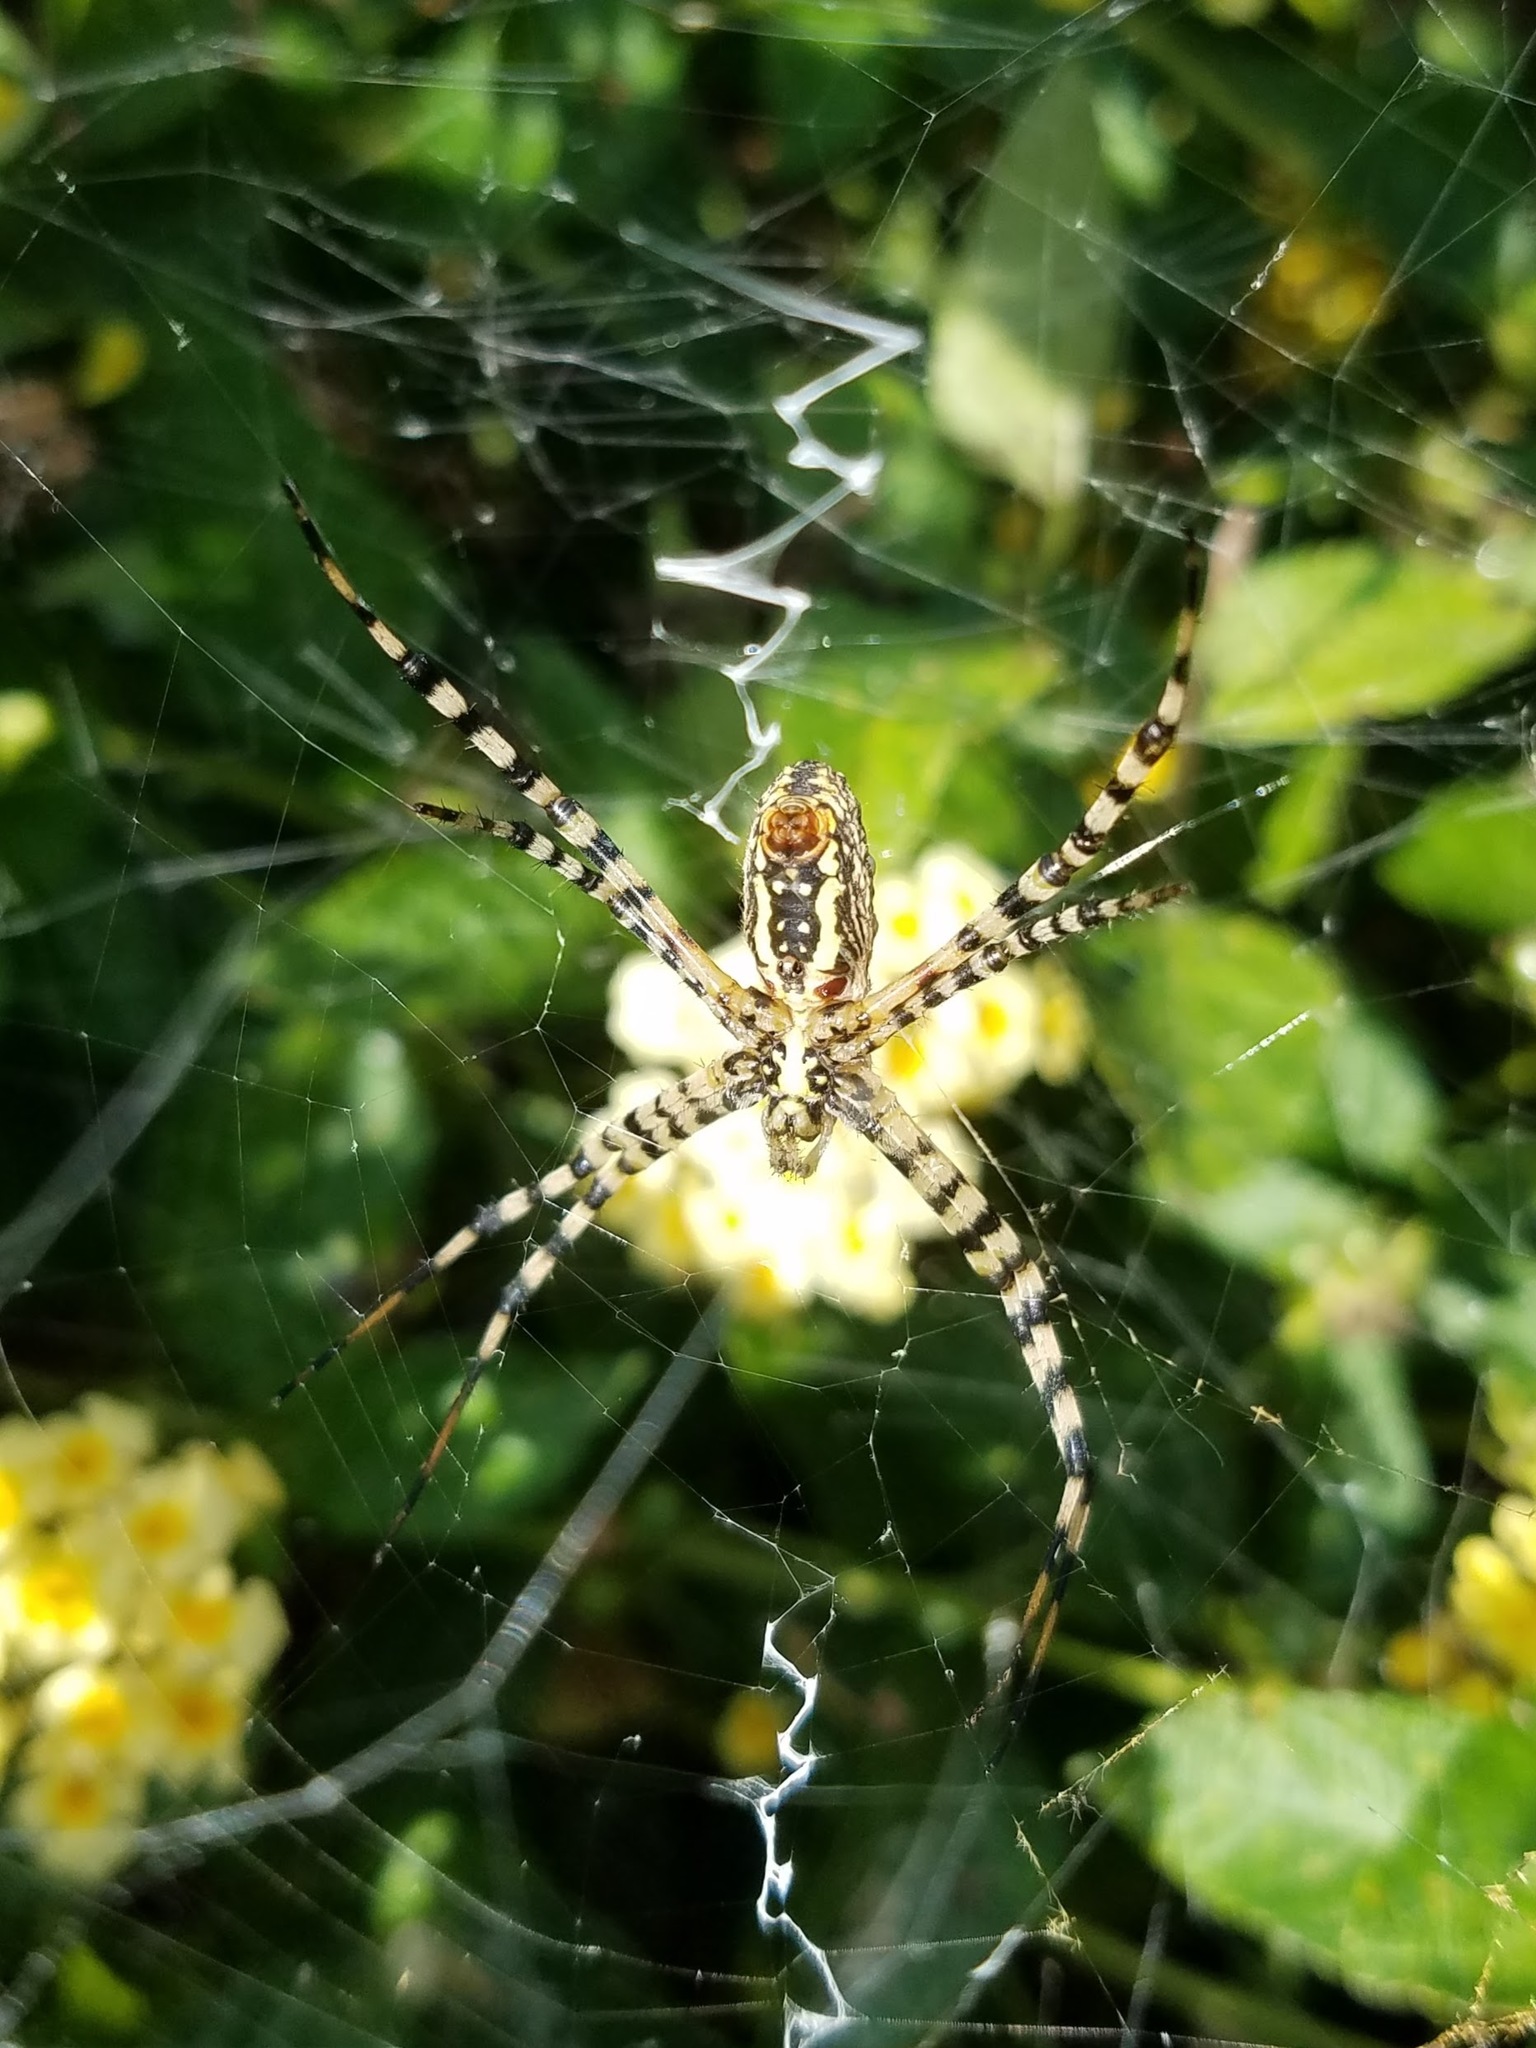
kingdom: Animalia
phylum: Arthropoda
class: Arachnida
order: Araneae
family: Araneidae
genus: Argiope
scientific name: Argiope trifasciata
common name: Banded garden spider
